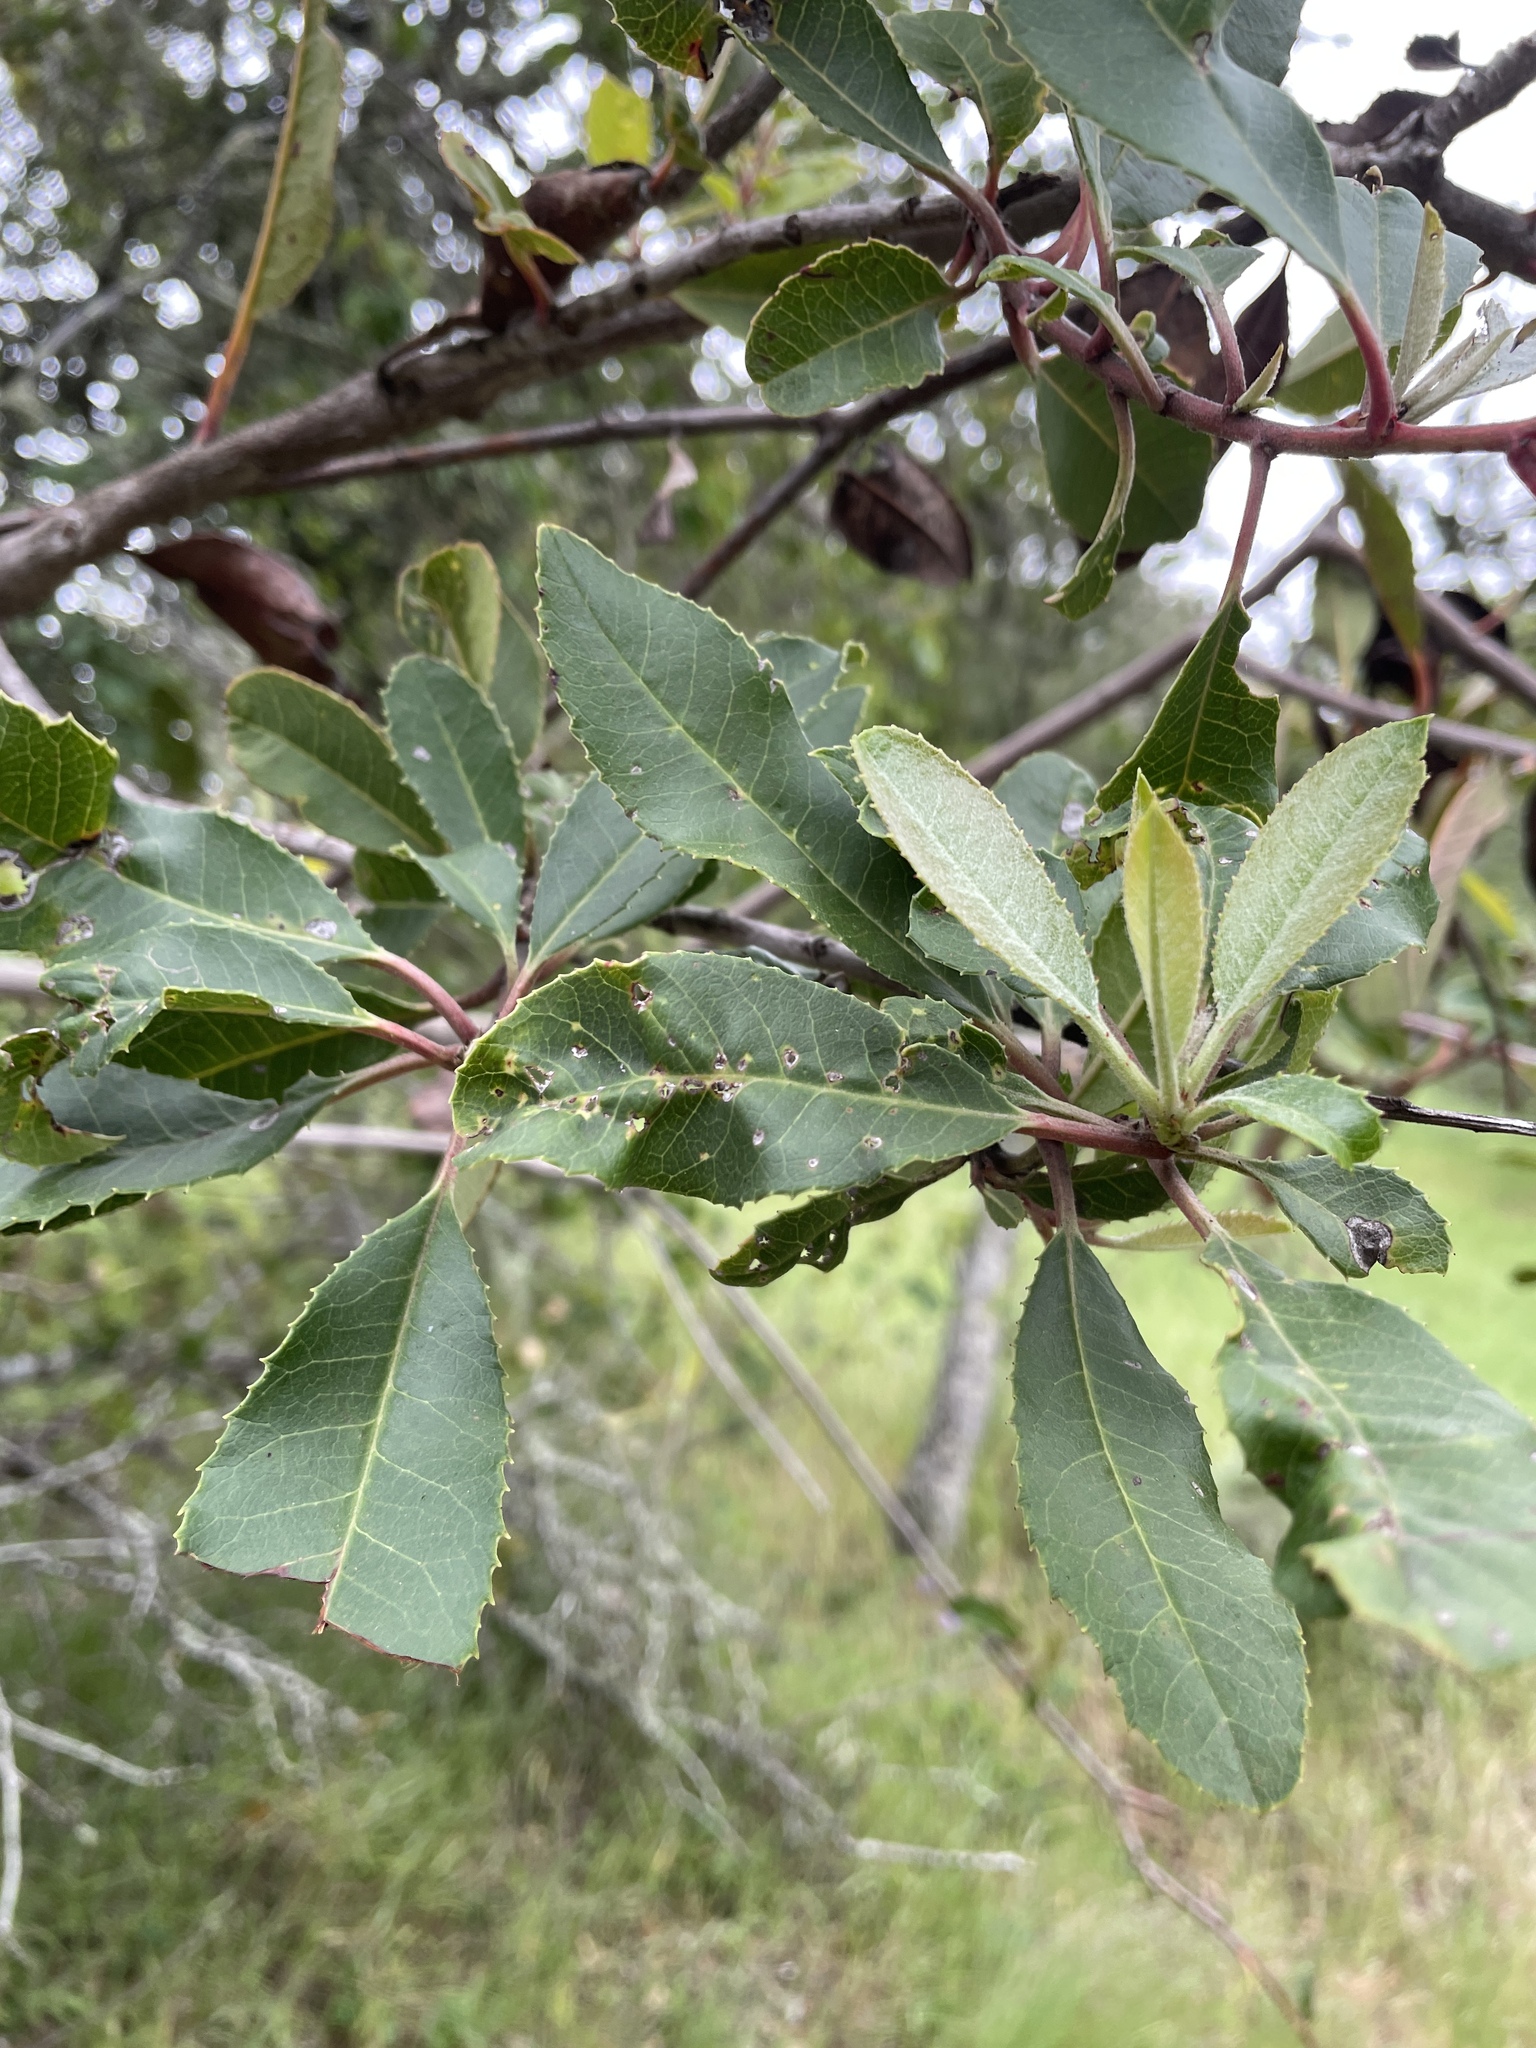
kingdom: Plantae
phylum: Tracheophyta
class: Magnoliopsida
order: Rosales
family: Rosaceae
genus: Heteromeles
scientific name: Heteromeles arbutifolia
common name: California-holly
